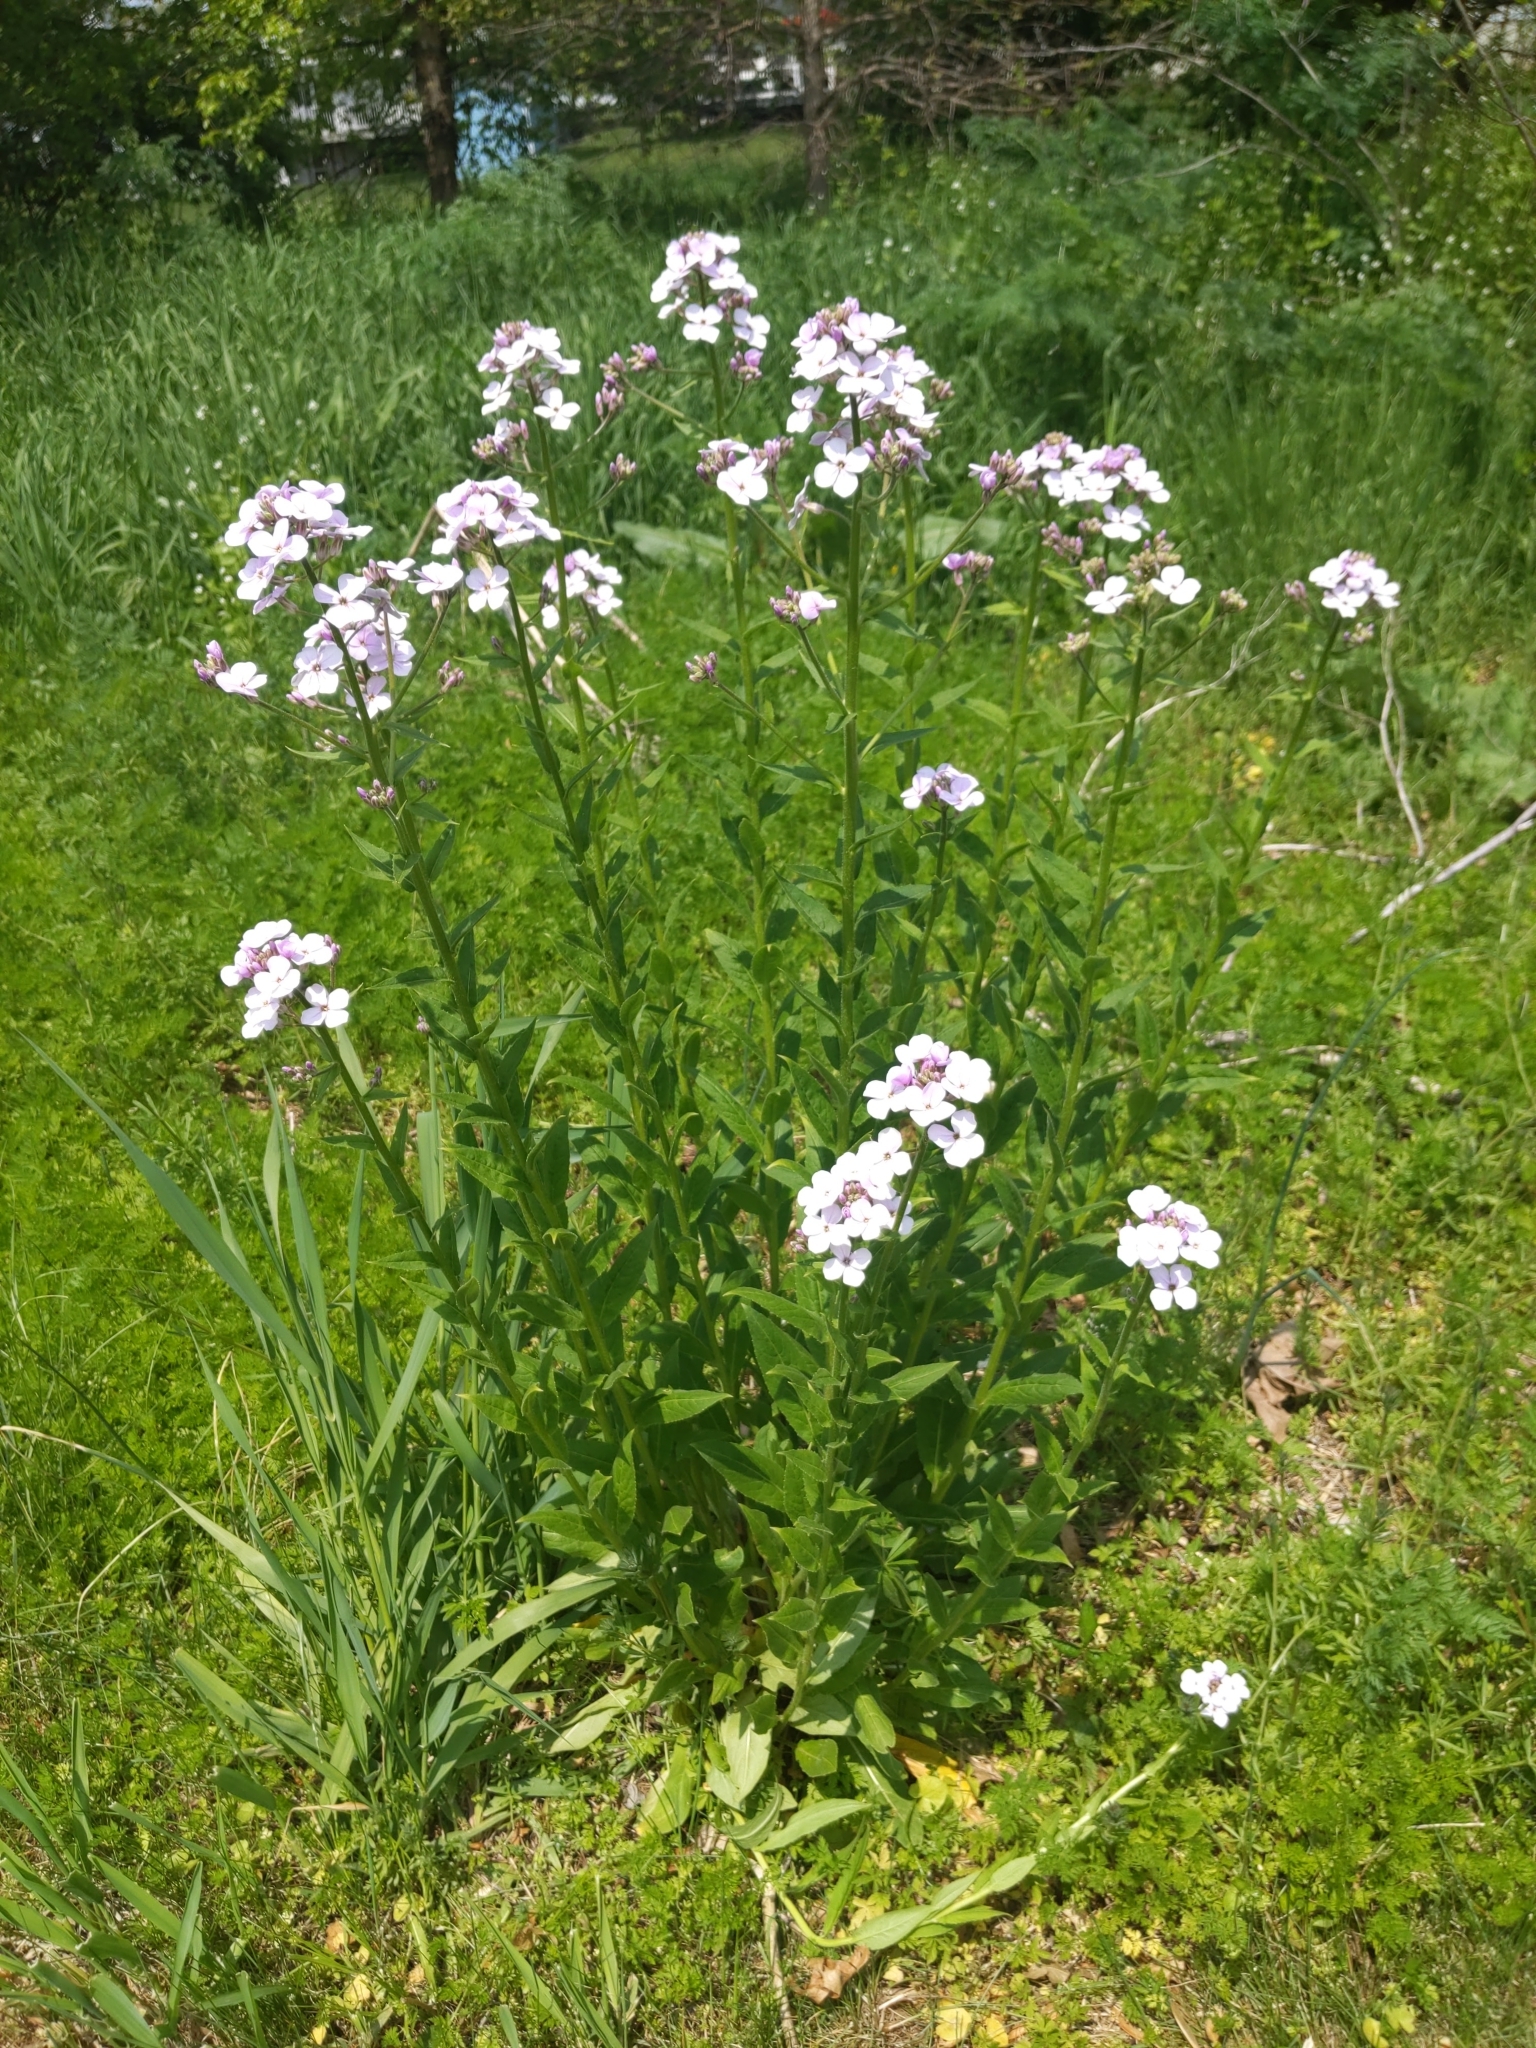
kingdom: Plantae
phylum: Tracheophyta
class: Magnoliopsida
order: Brassicales
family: Brassicaceae
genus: Hesperis
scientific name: Hesperis matronalis
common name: Dame's-violet
